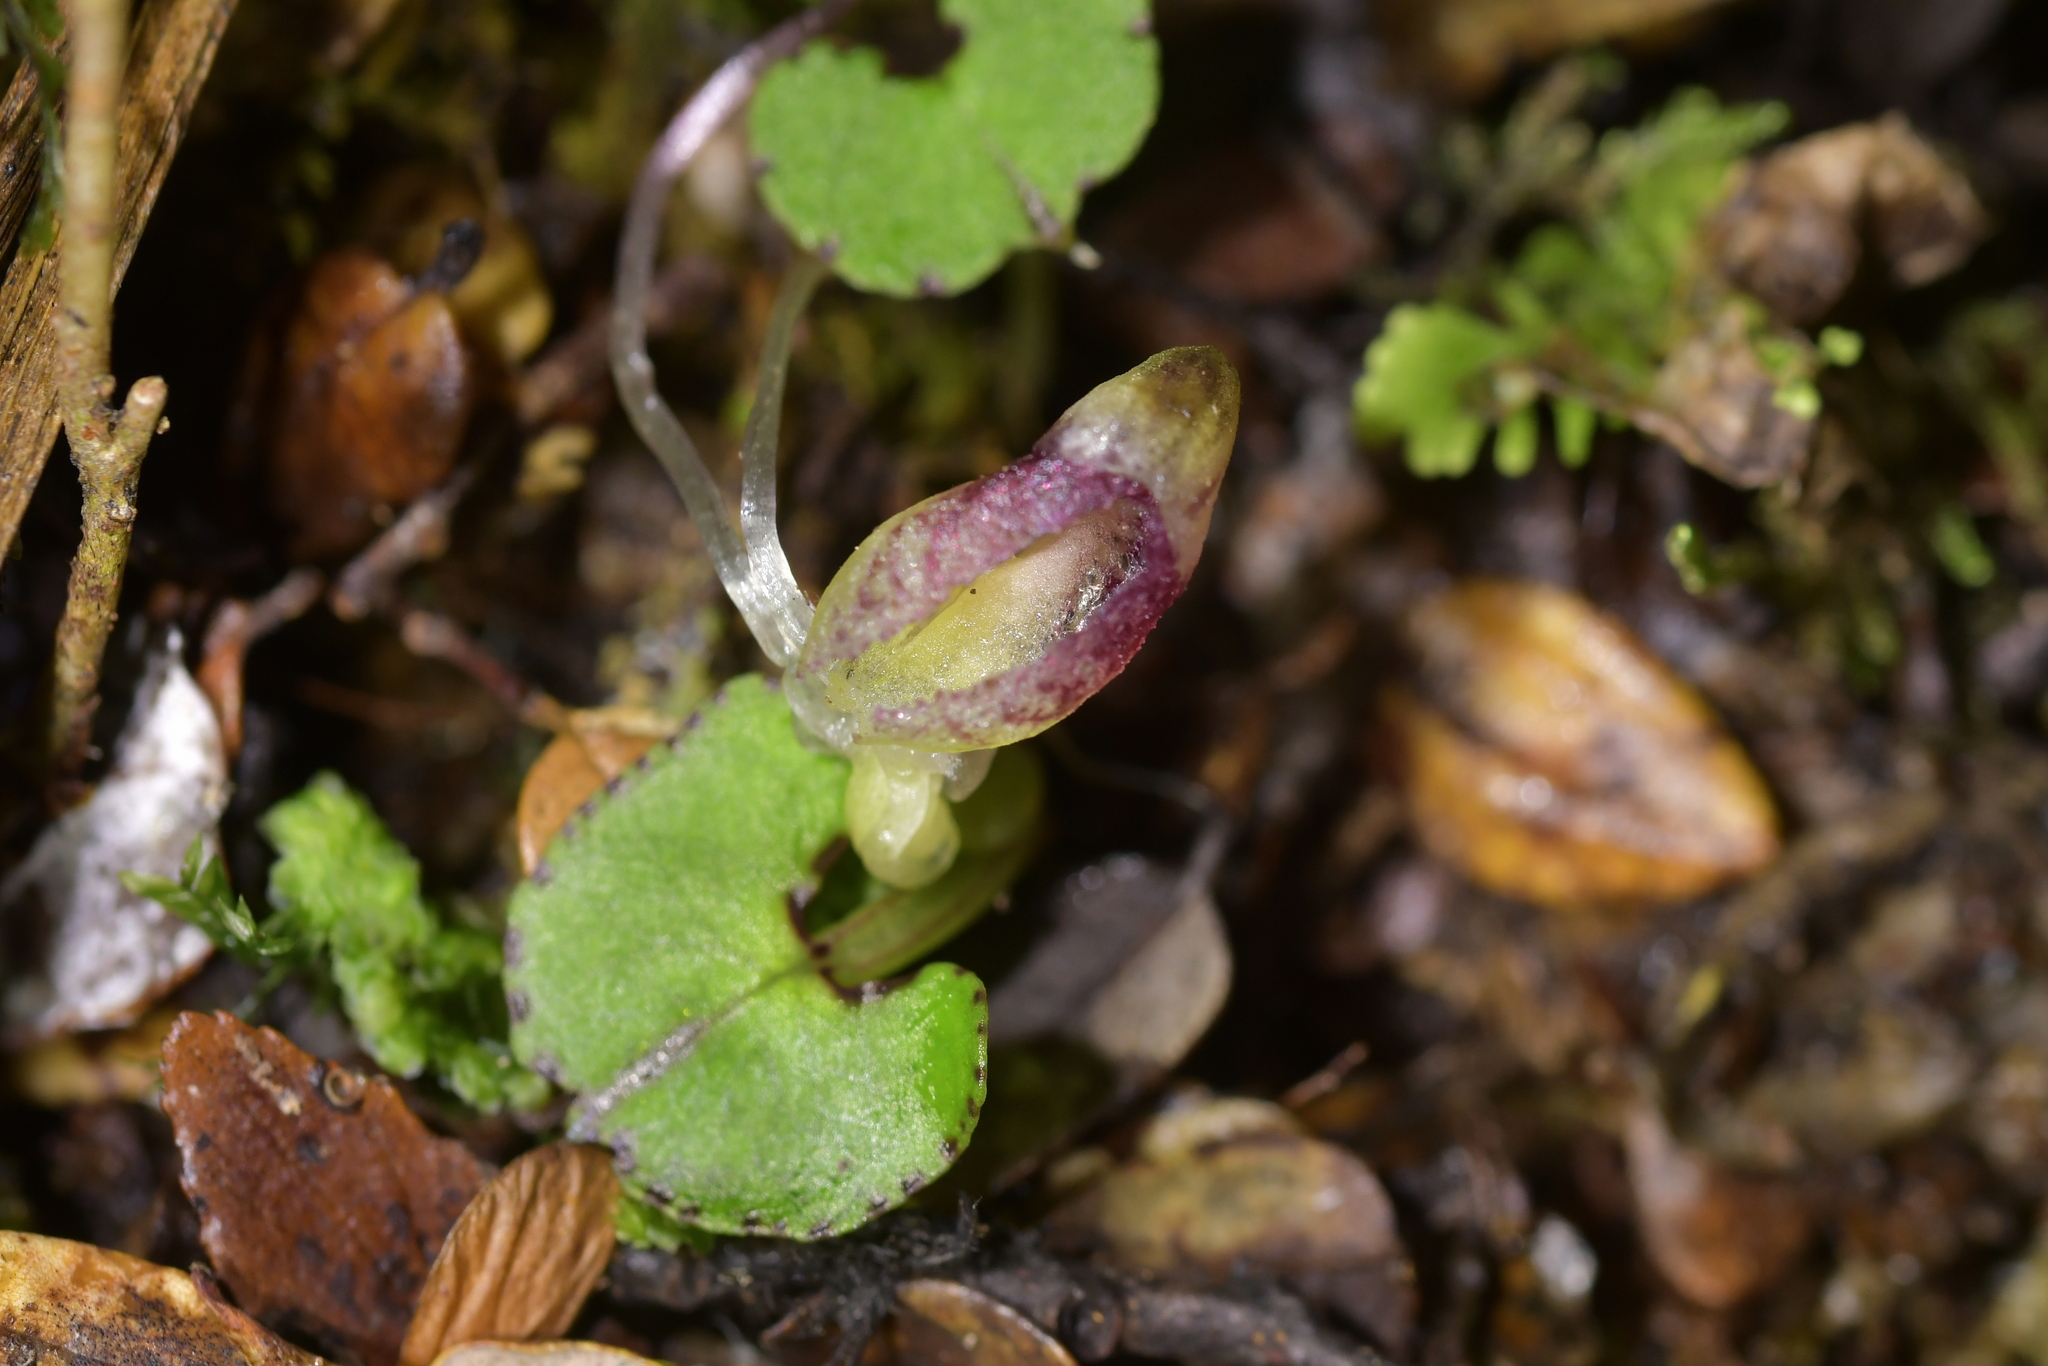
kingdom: Plantae
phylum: Tracheophyta
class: Liliopsida
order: Asparagales
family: Orchidaceae
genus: Corybas
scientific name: Corybas walliae
